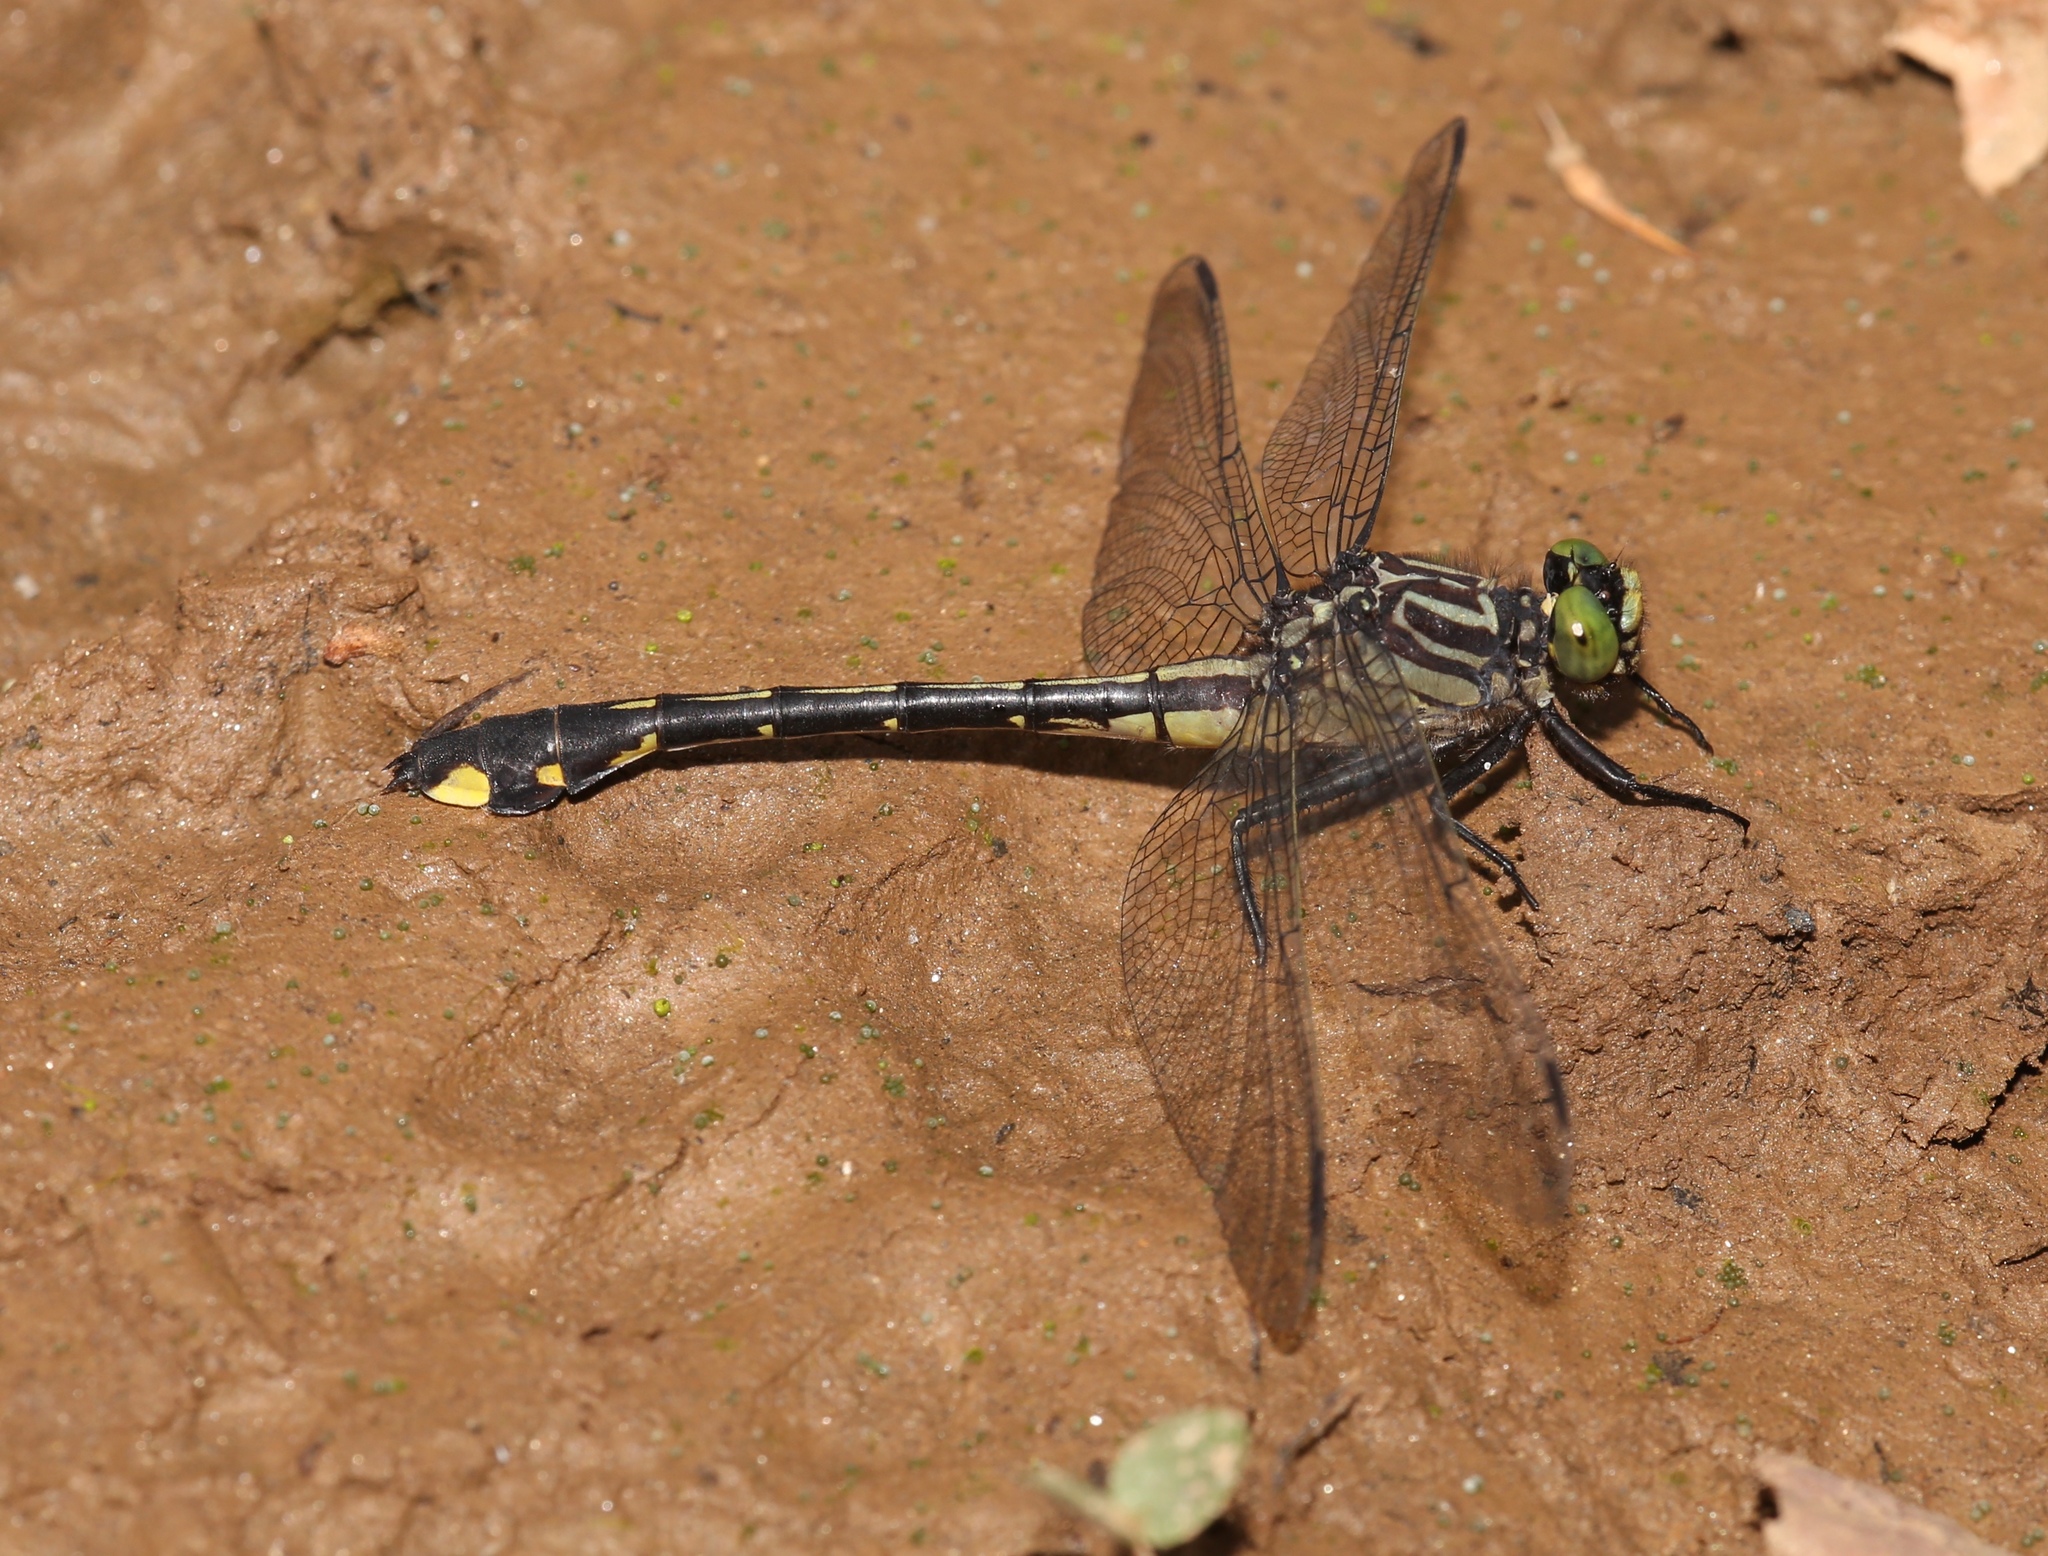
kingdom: Animalia
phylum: Arthropoda
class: Insecta
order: Odonata
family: Gomphidae
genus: Gomphurus
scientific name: Gomphurus vastus
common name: Cobra clubtail
